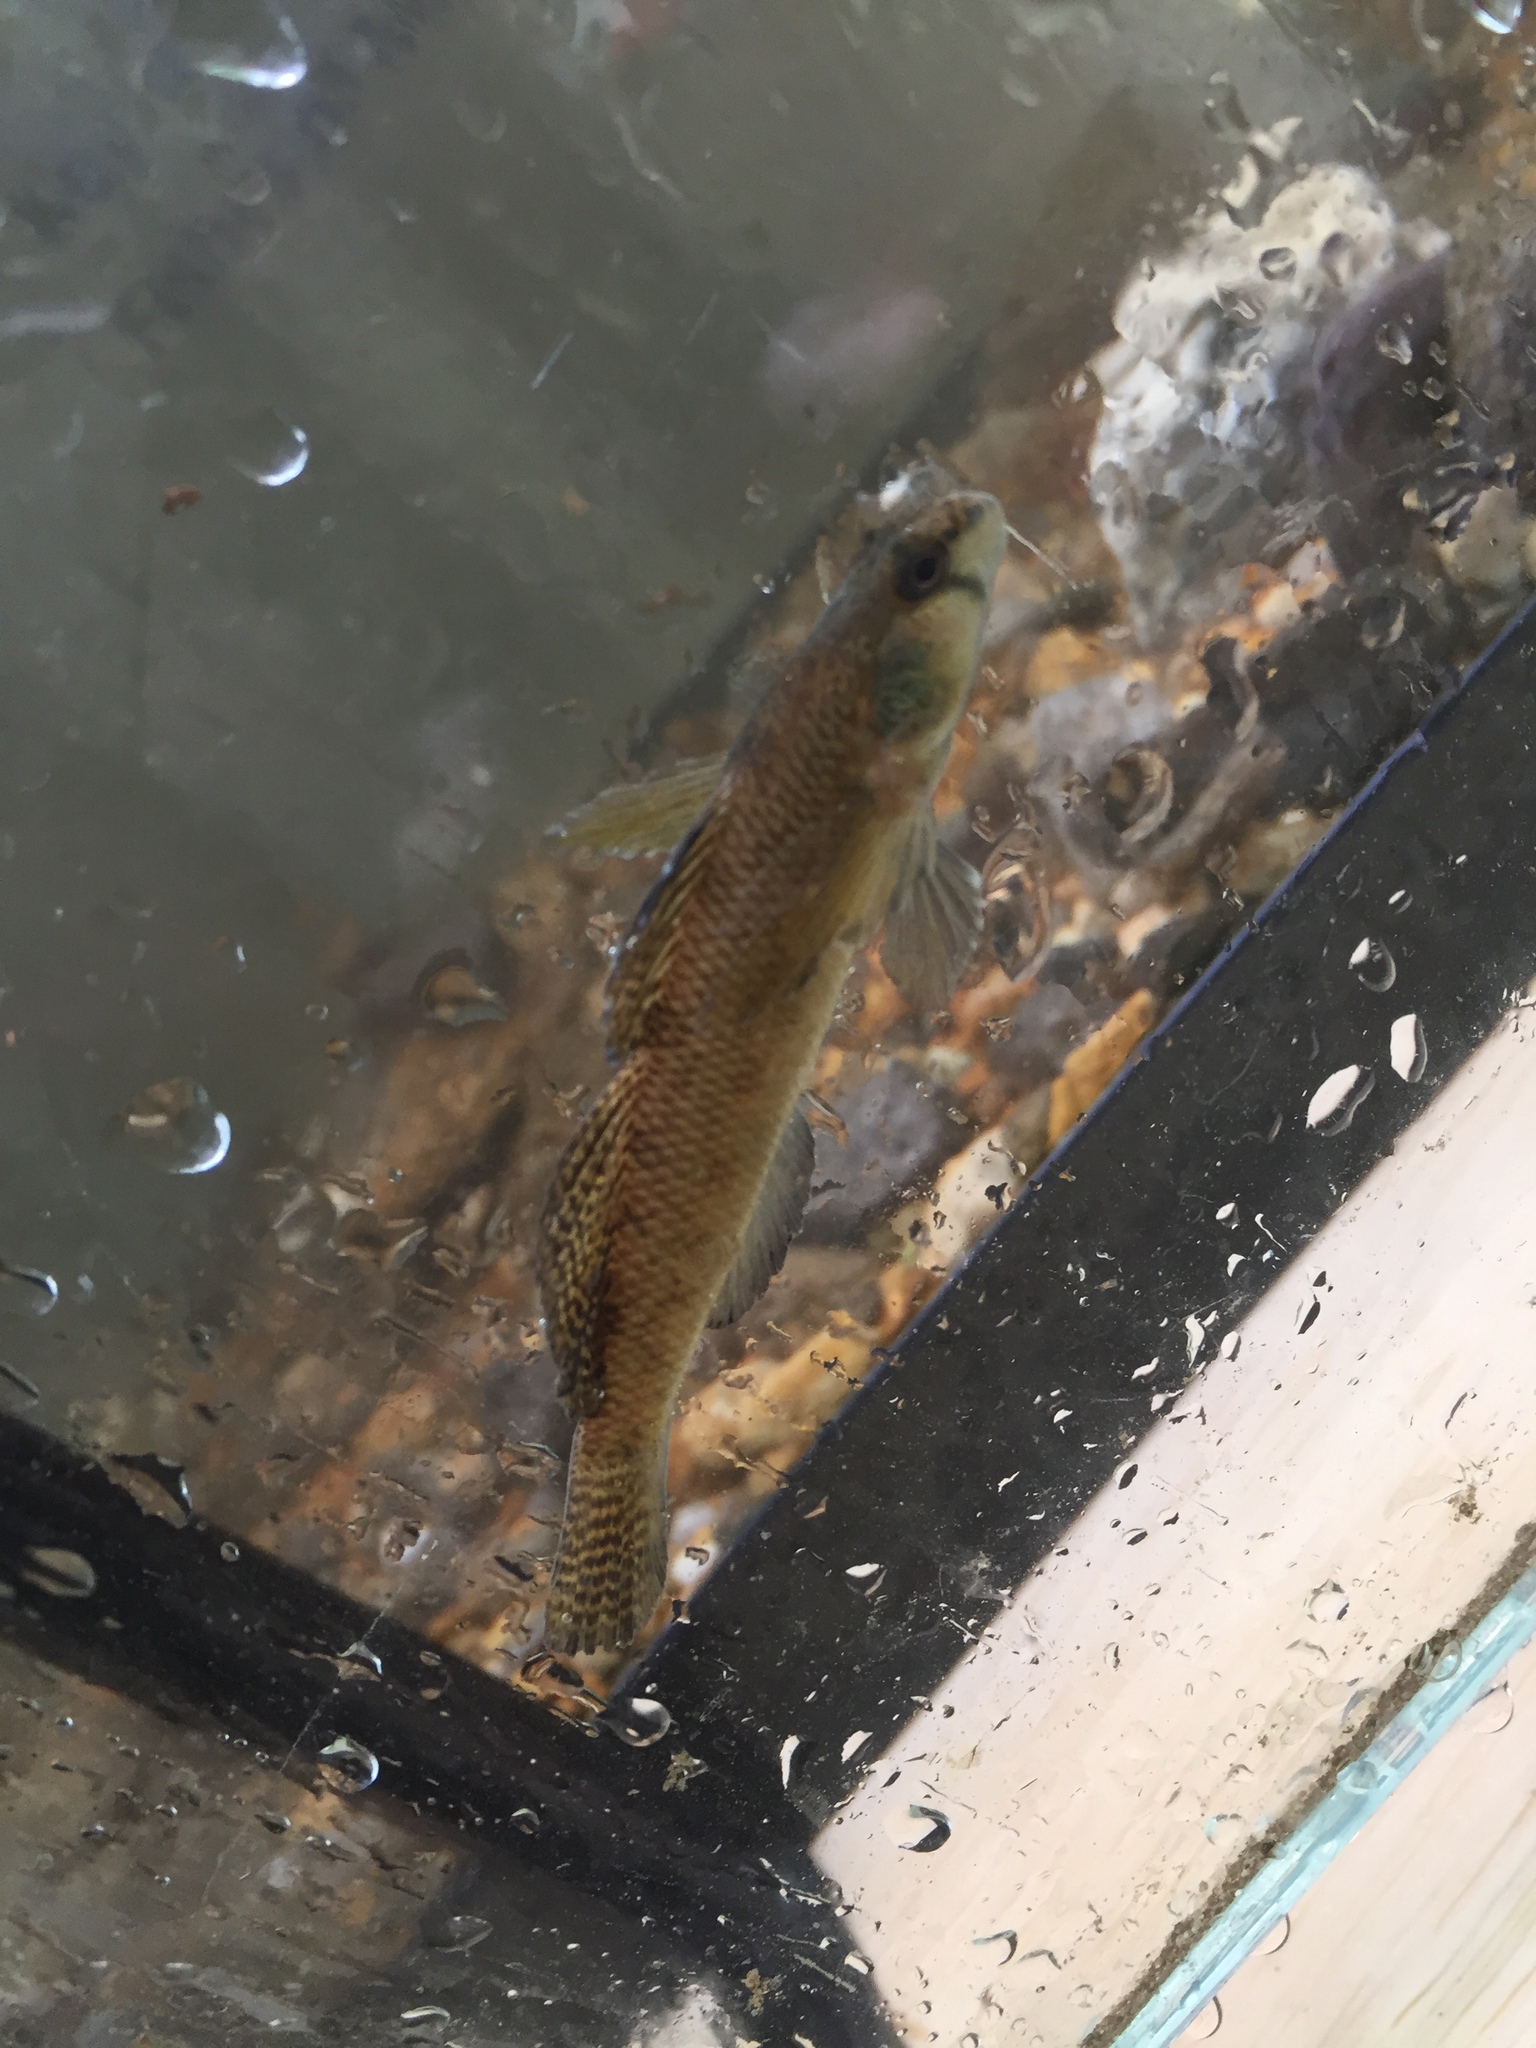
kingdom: Animalia
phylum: Chordata
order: Perciformes
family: Percidae
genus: Etheostoma
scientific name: Etheostoma olmstedi
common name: Tessellated darter
